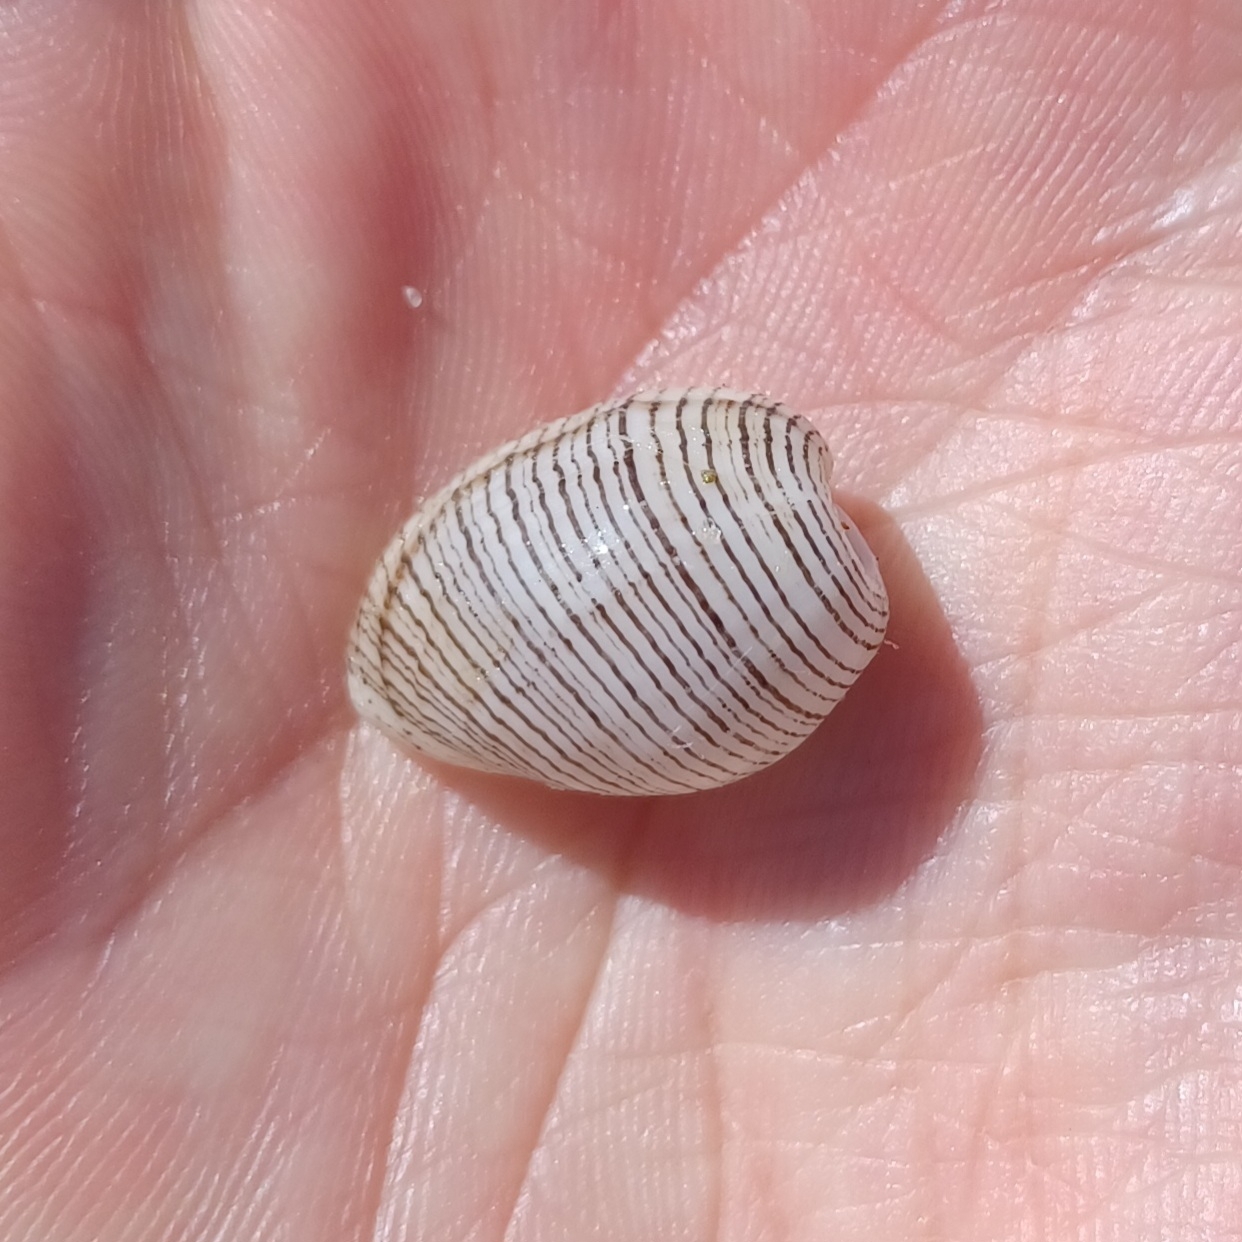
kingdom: Animalia
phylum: Mollusca
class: Gastropoda
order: Cephalaspidea
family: Aplustridae
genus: Hydatina
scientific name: Hydatina physis
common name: Brown-line paperbubble
